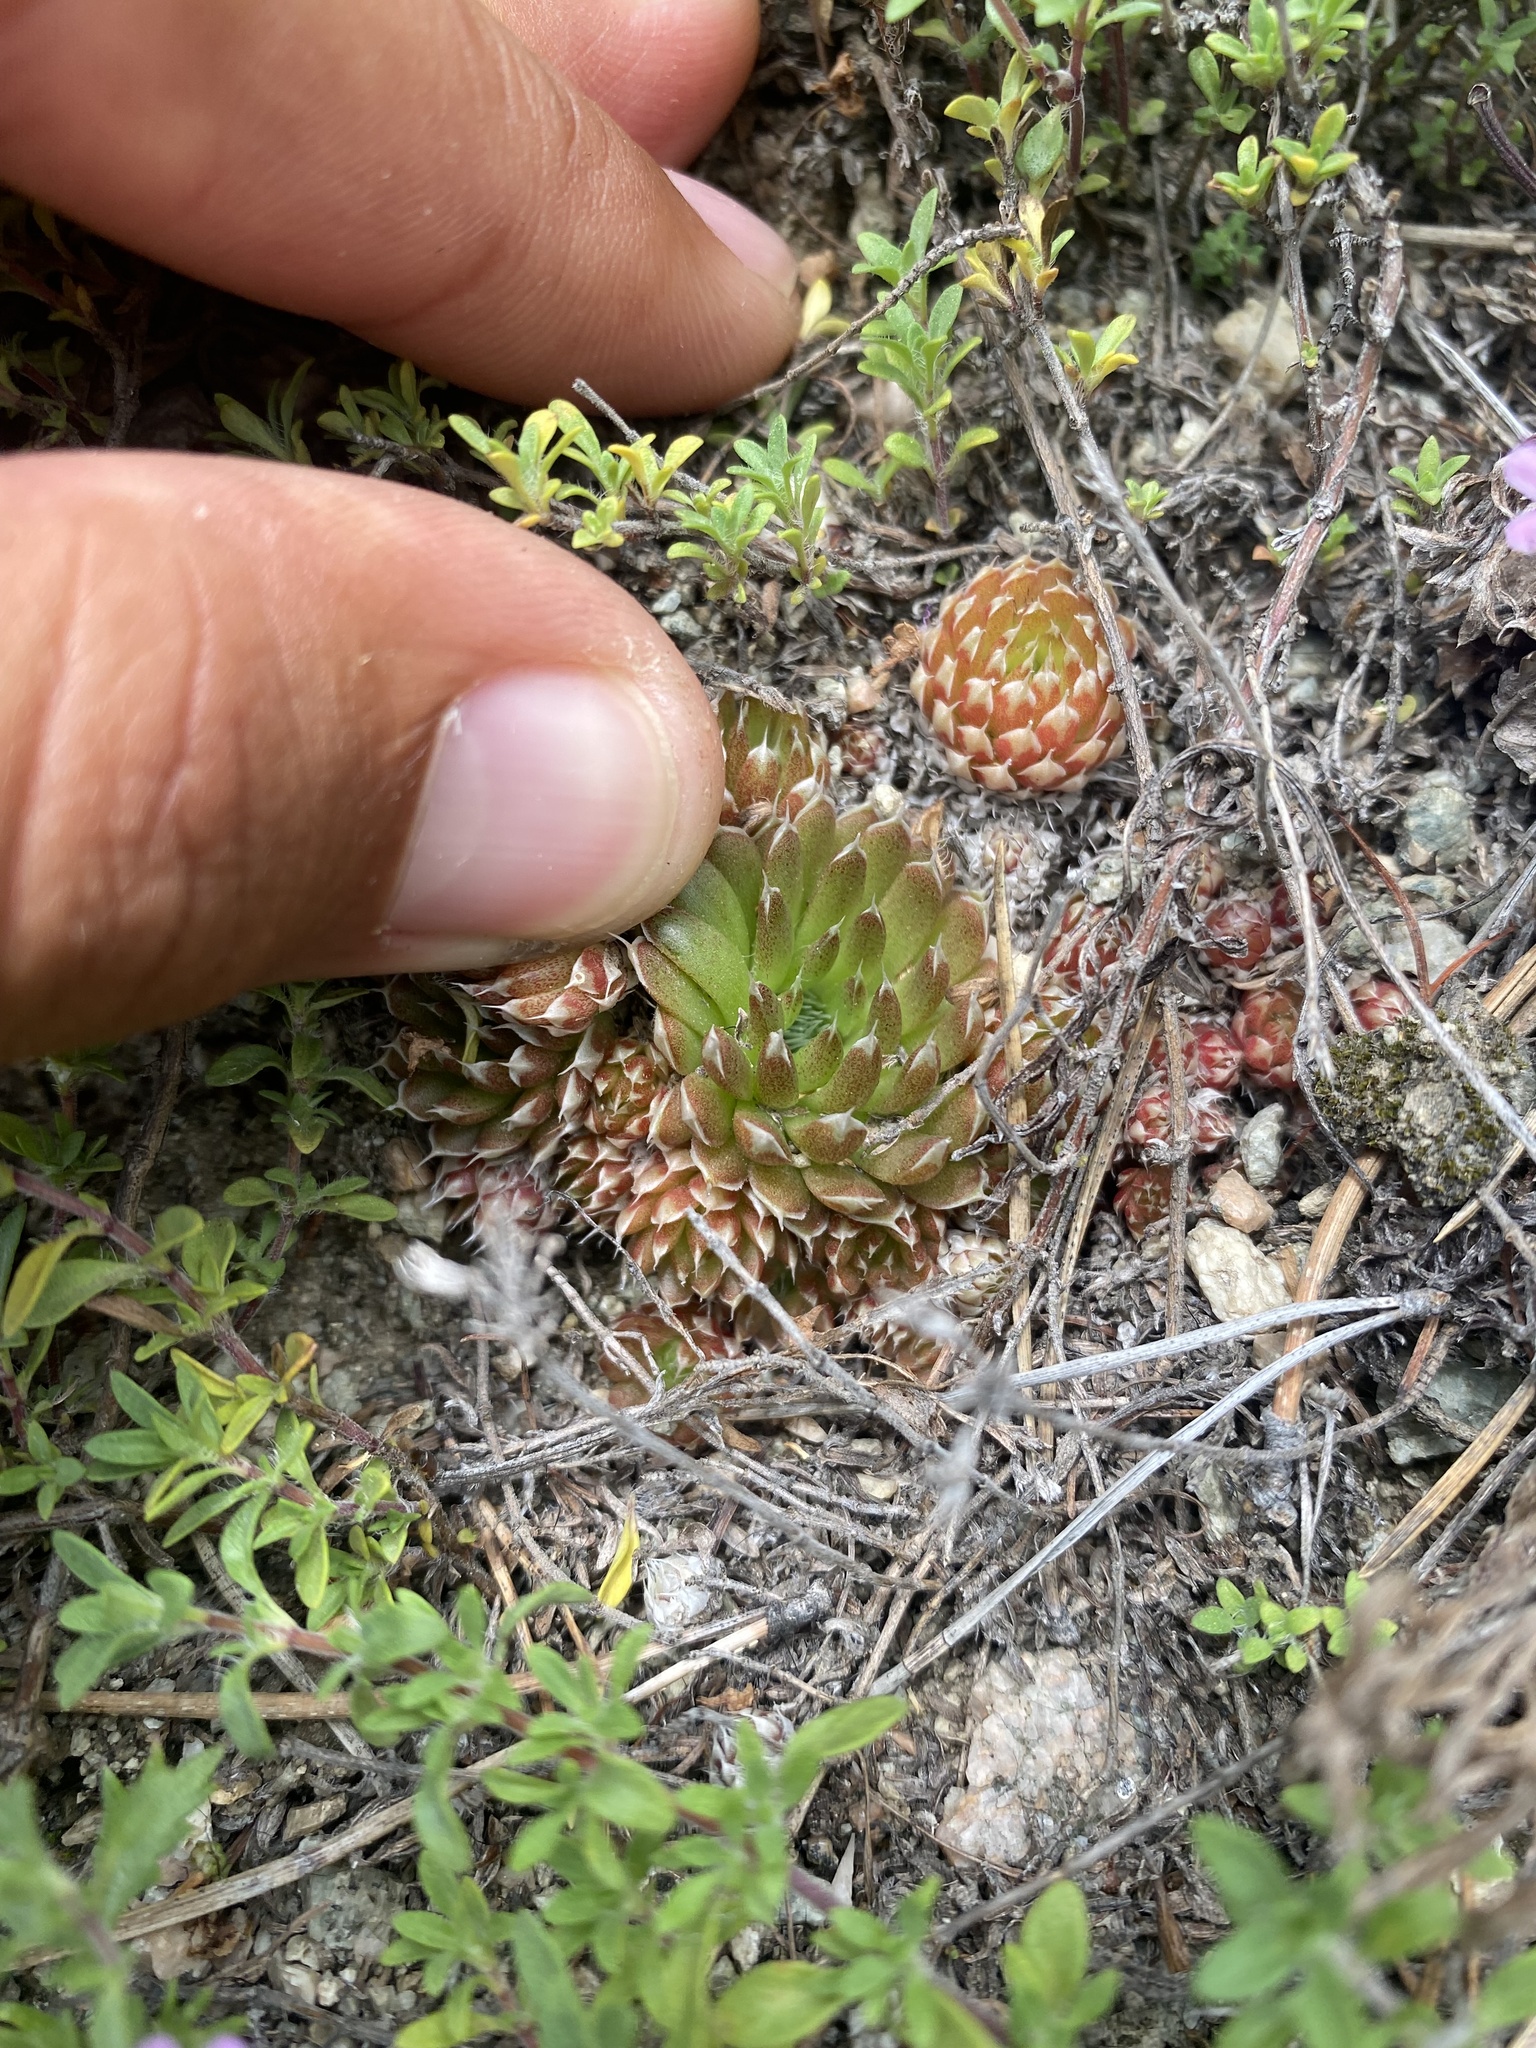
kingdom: Plantae
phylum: Tracheophyta
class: Magnoliopsida
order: Saxifragales
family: Crassulaceae
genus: Orostachys
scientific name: Orostachys spinosa
